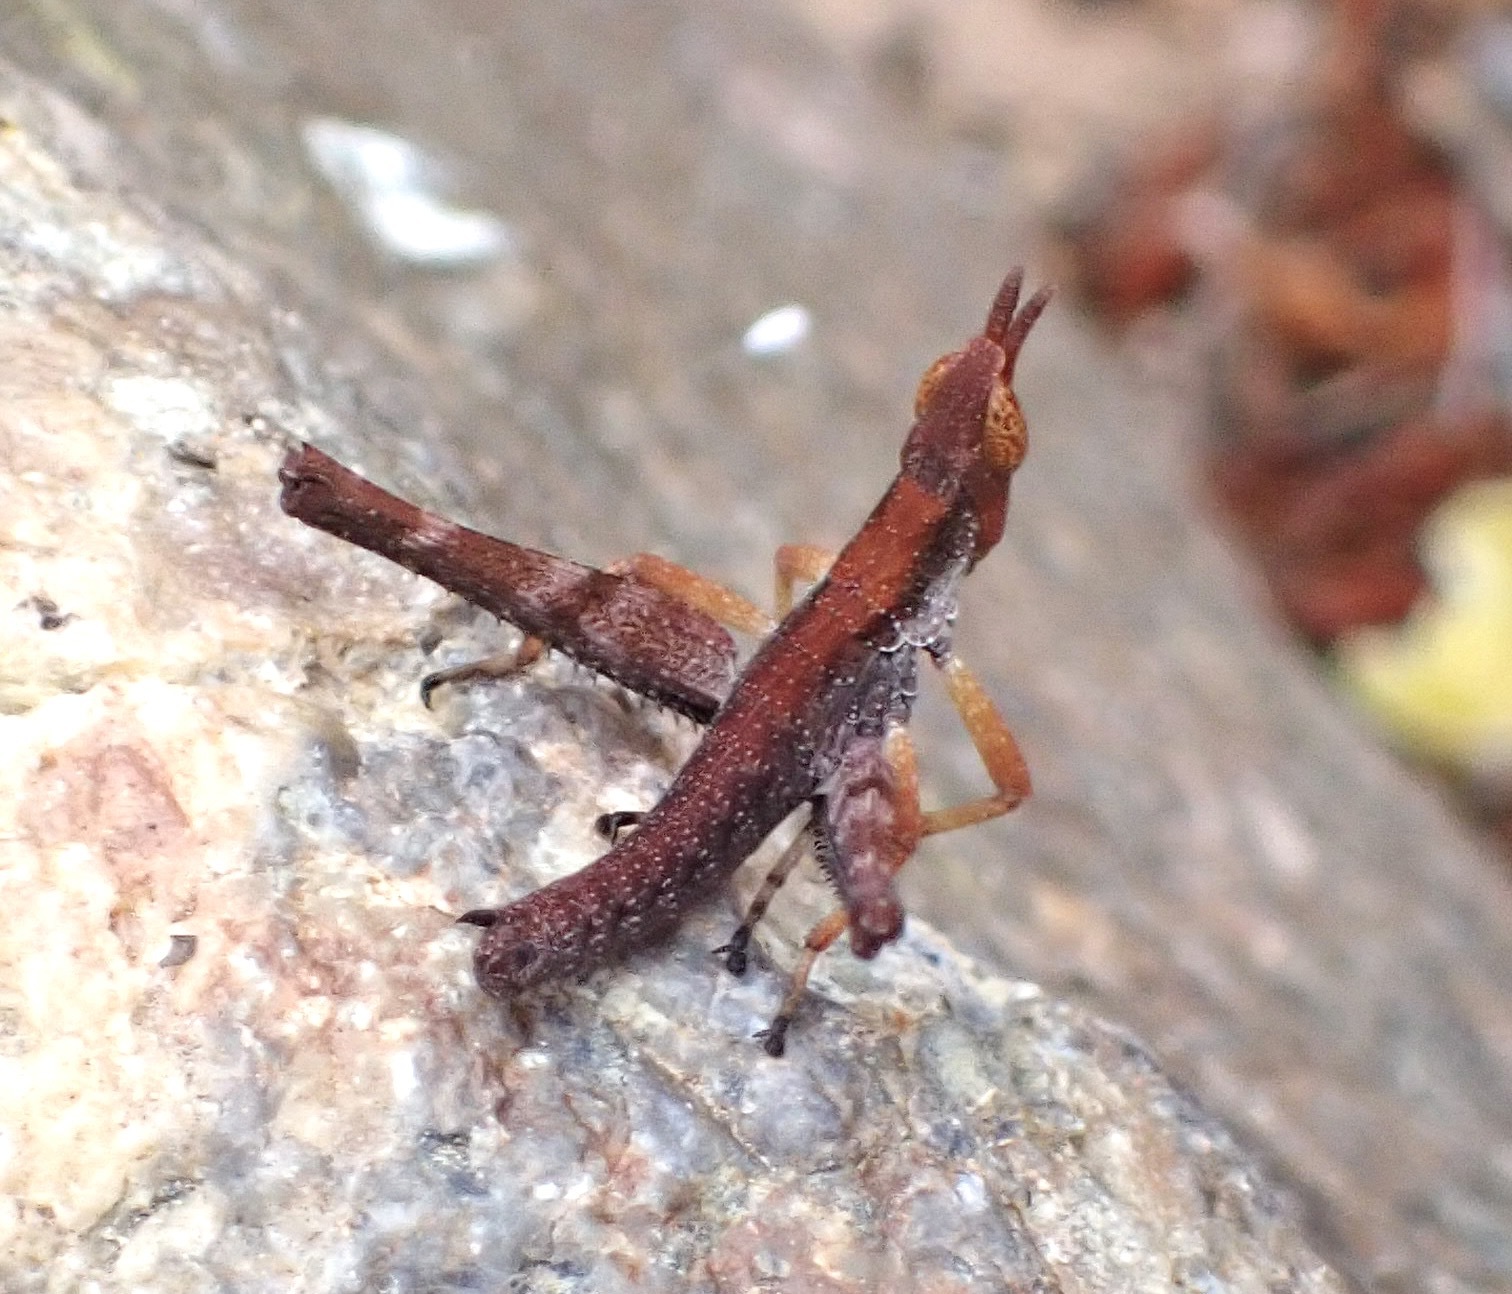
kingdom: Animalia
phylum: Arthropoda
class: Insecta
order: Orthoptera
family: Eumastacidae
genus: Morsea
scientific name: Morsea californica
